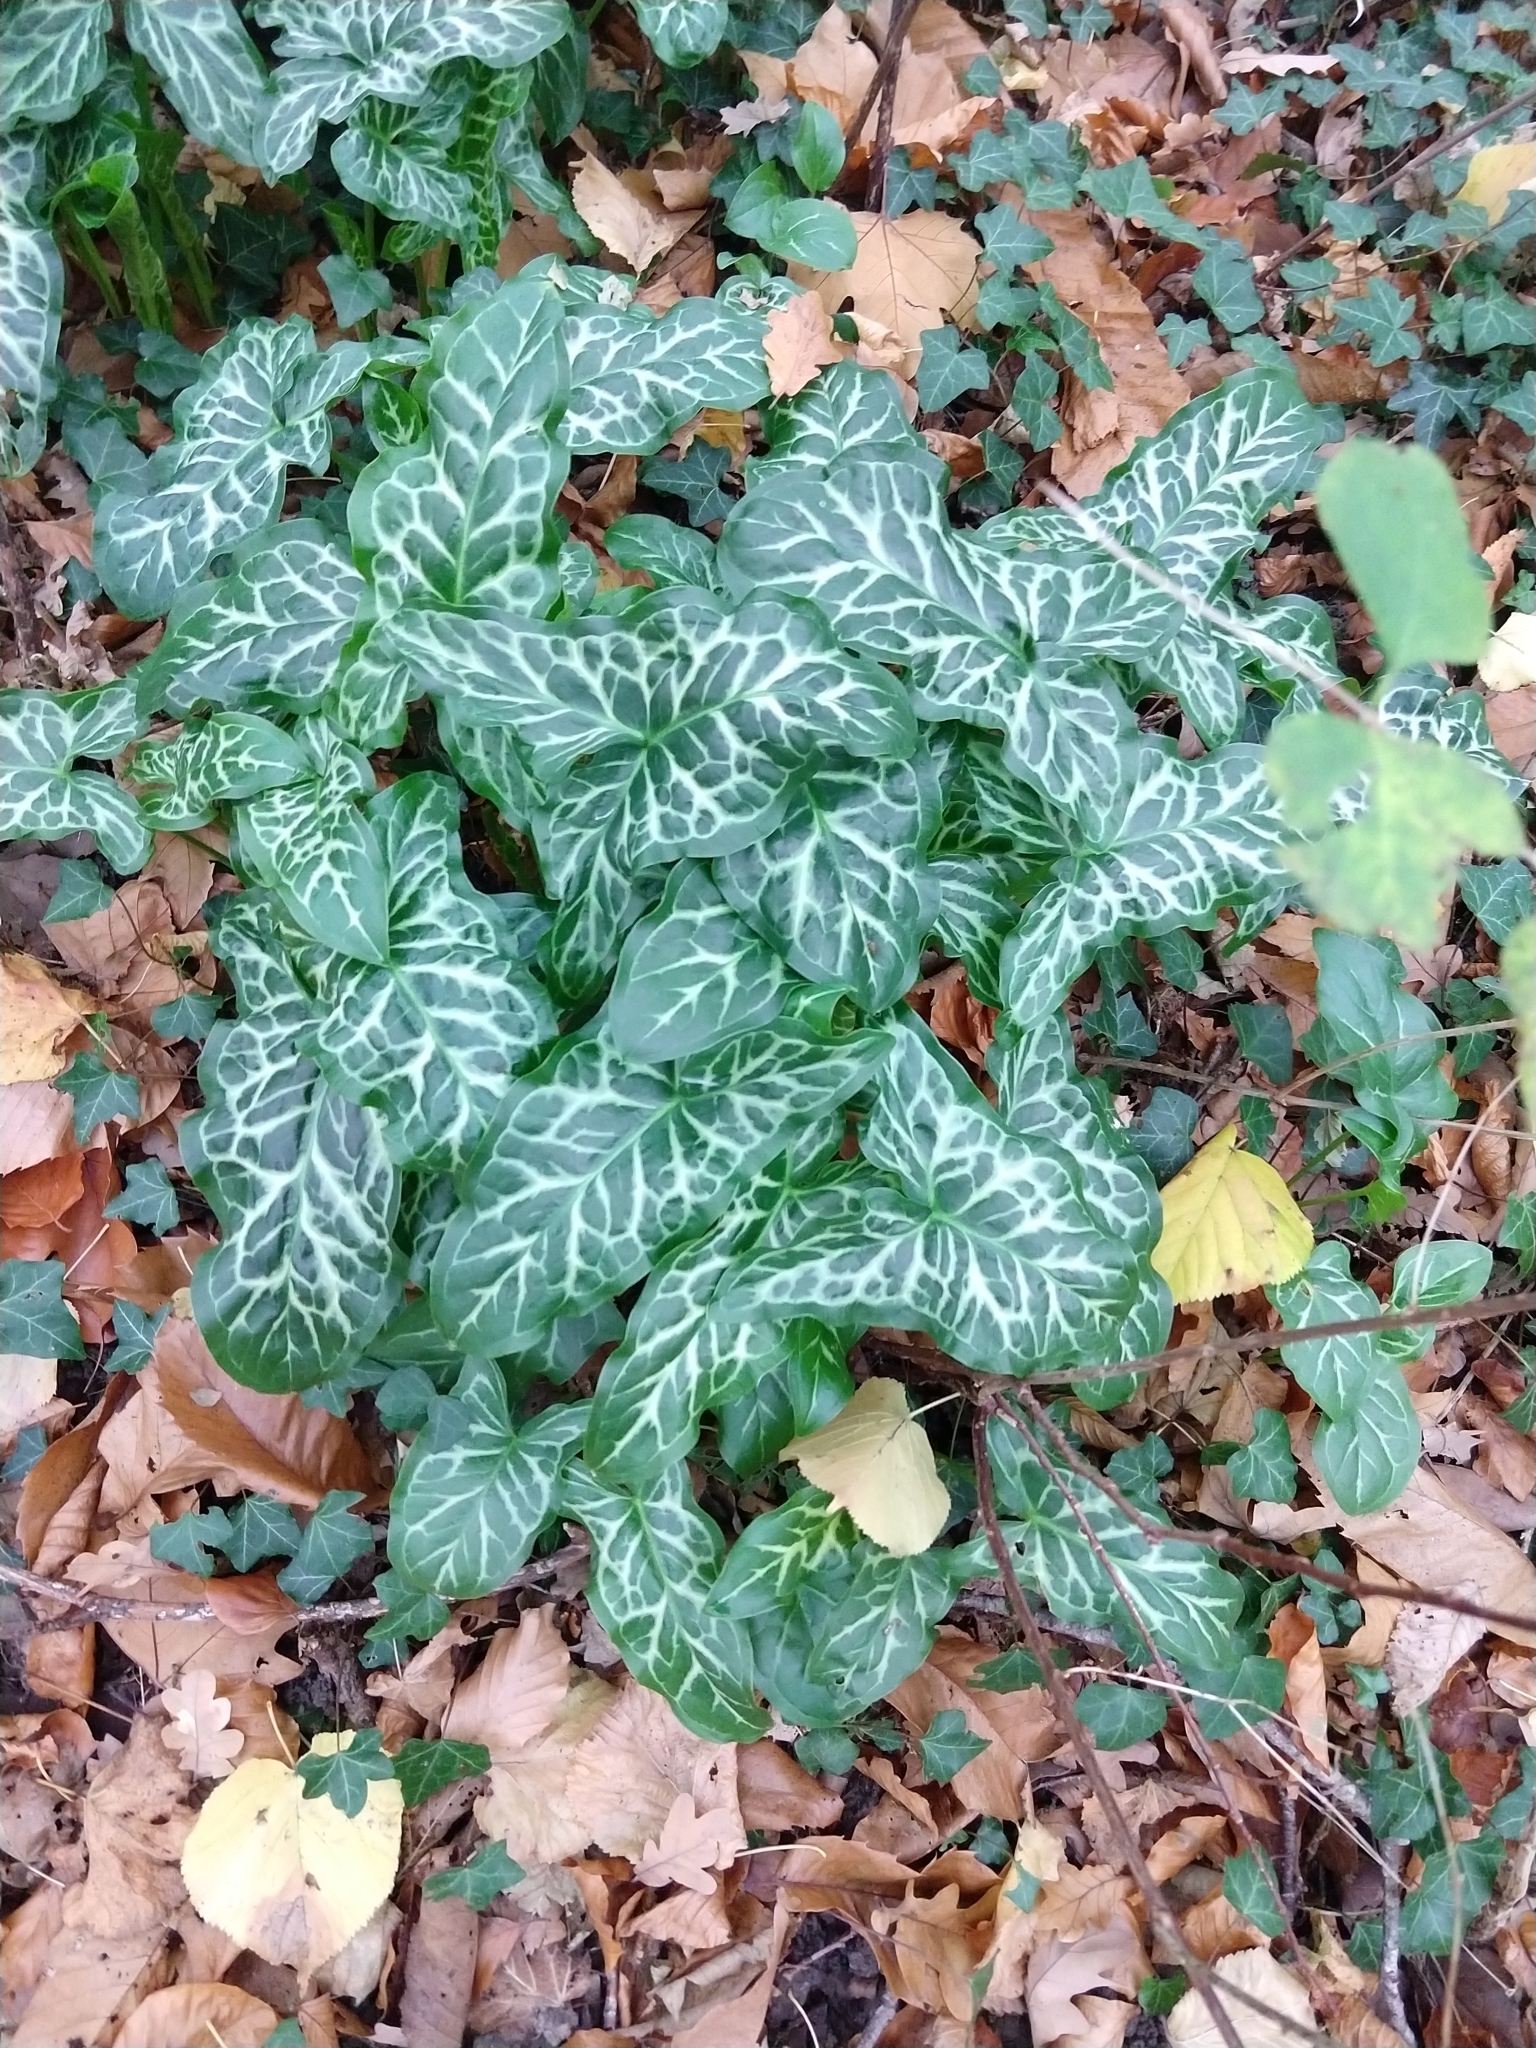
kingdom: Plantae
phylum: Tracheophyta
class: Liliopsida
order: Alismatales
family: Araceae
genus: Arum
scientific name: Arum italicum
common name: Italian lords-and-ladies
